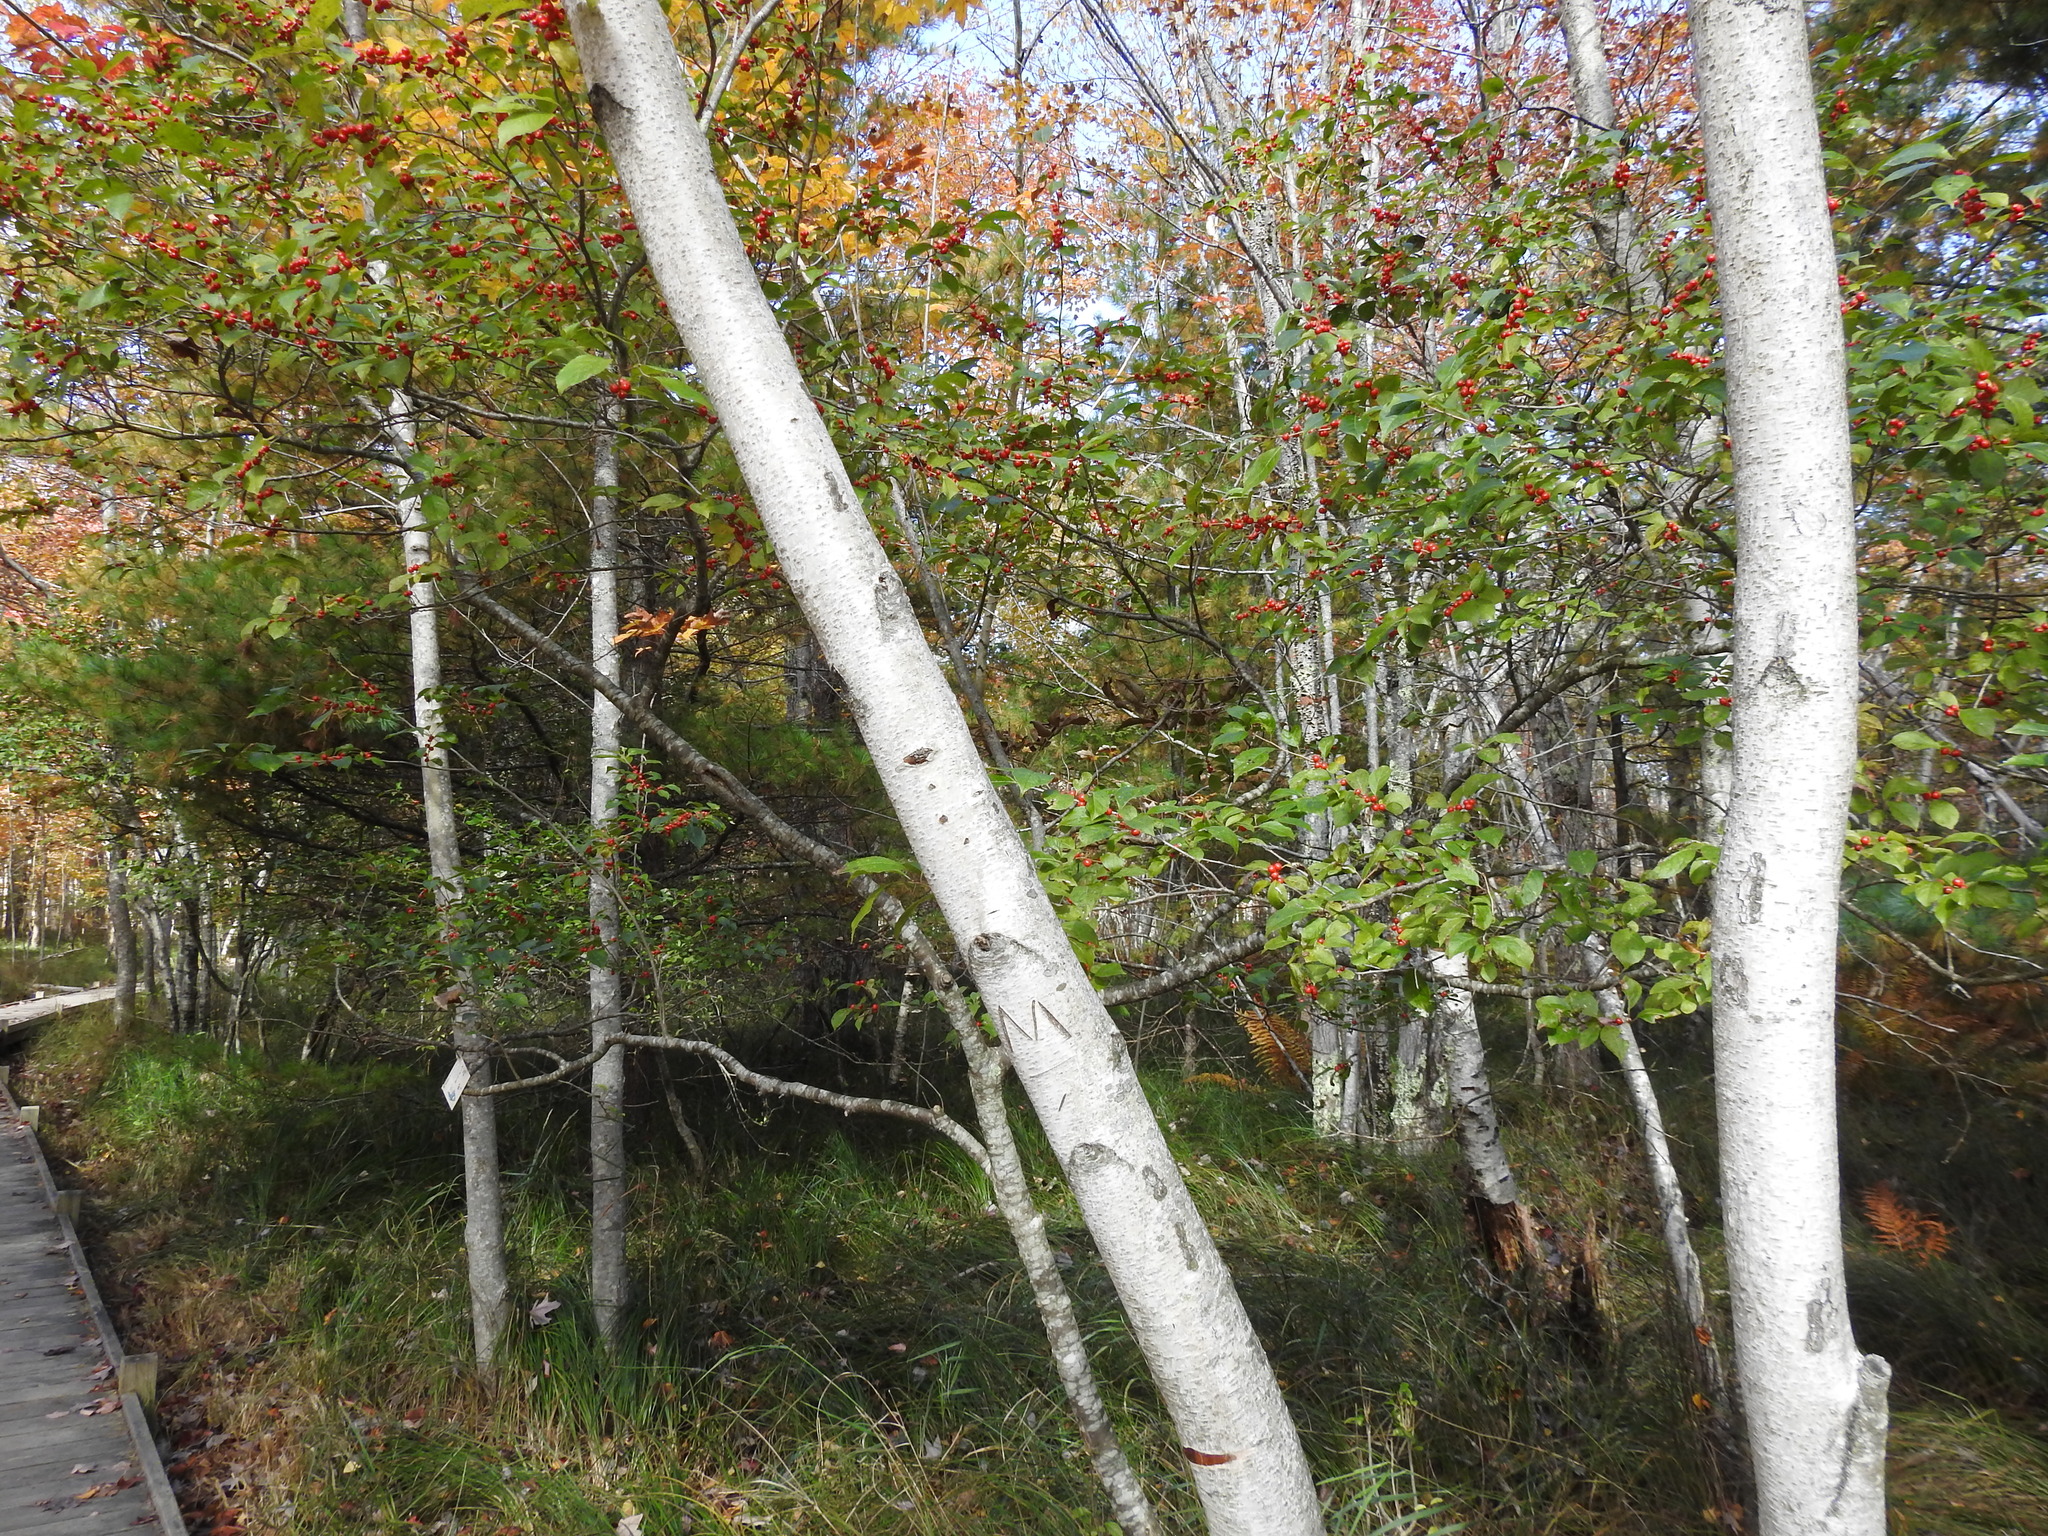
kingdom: Plantae
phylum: Tracheophyta
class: Magnoliopsida
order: Aquifoliales
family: Aquifoliaceae
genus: Ilex
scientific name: Ilex verticillata
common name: Virginia winterberry
